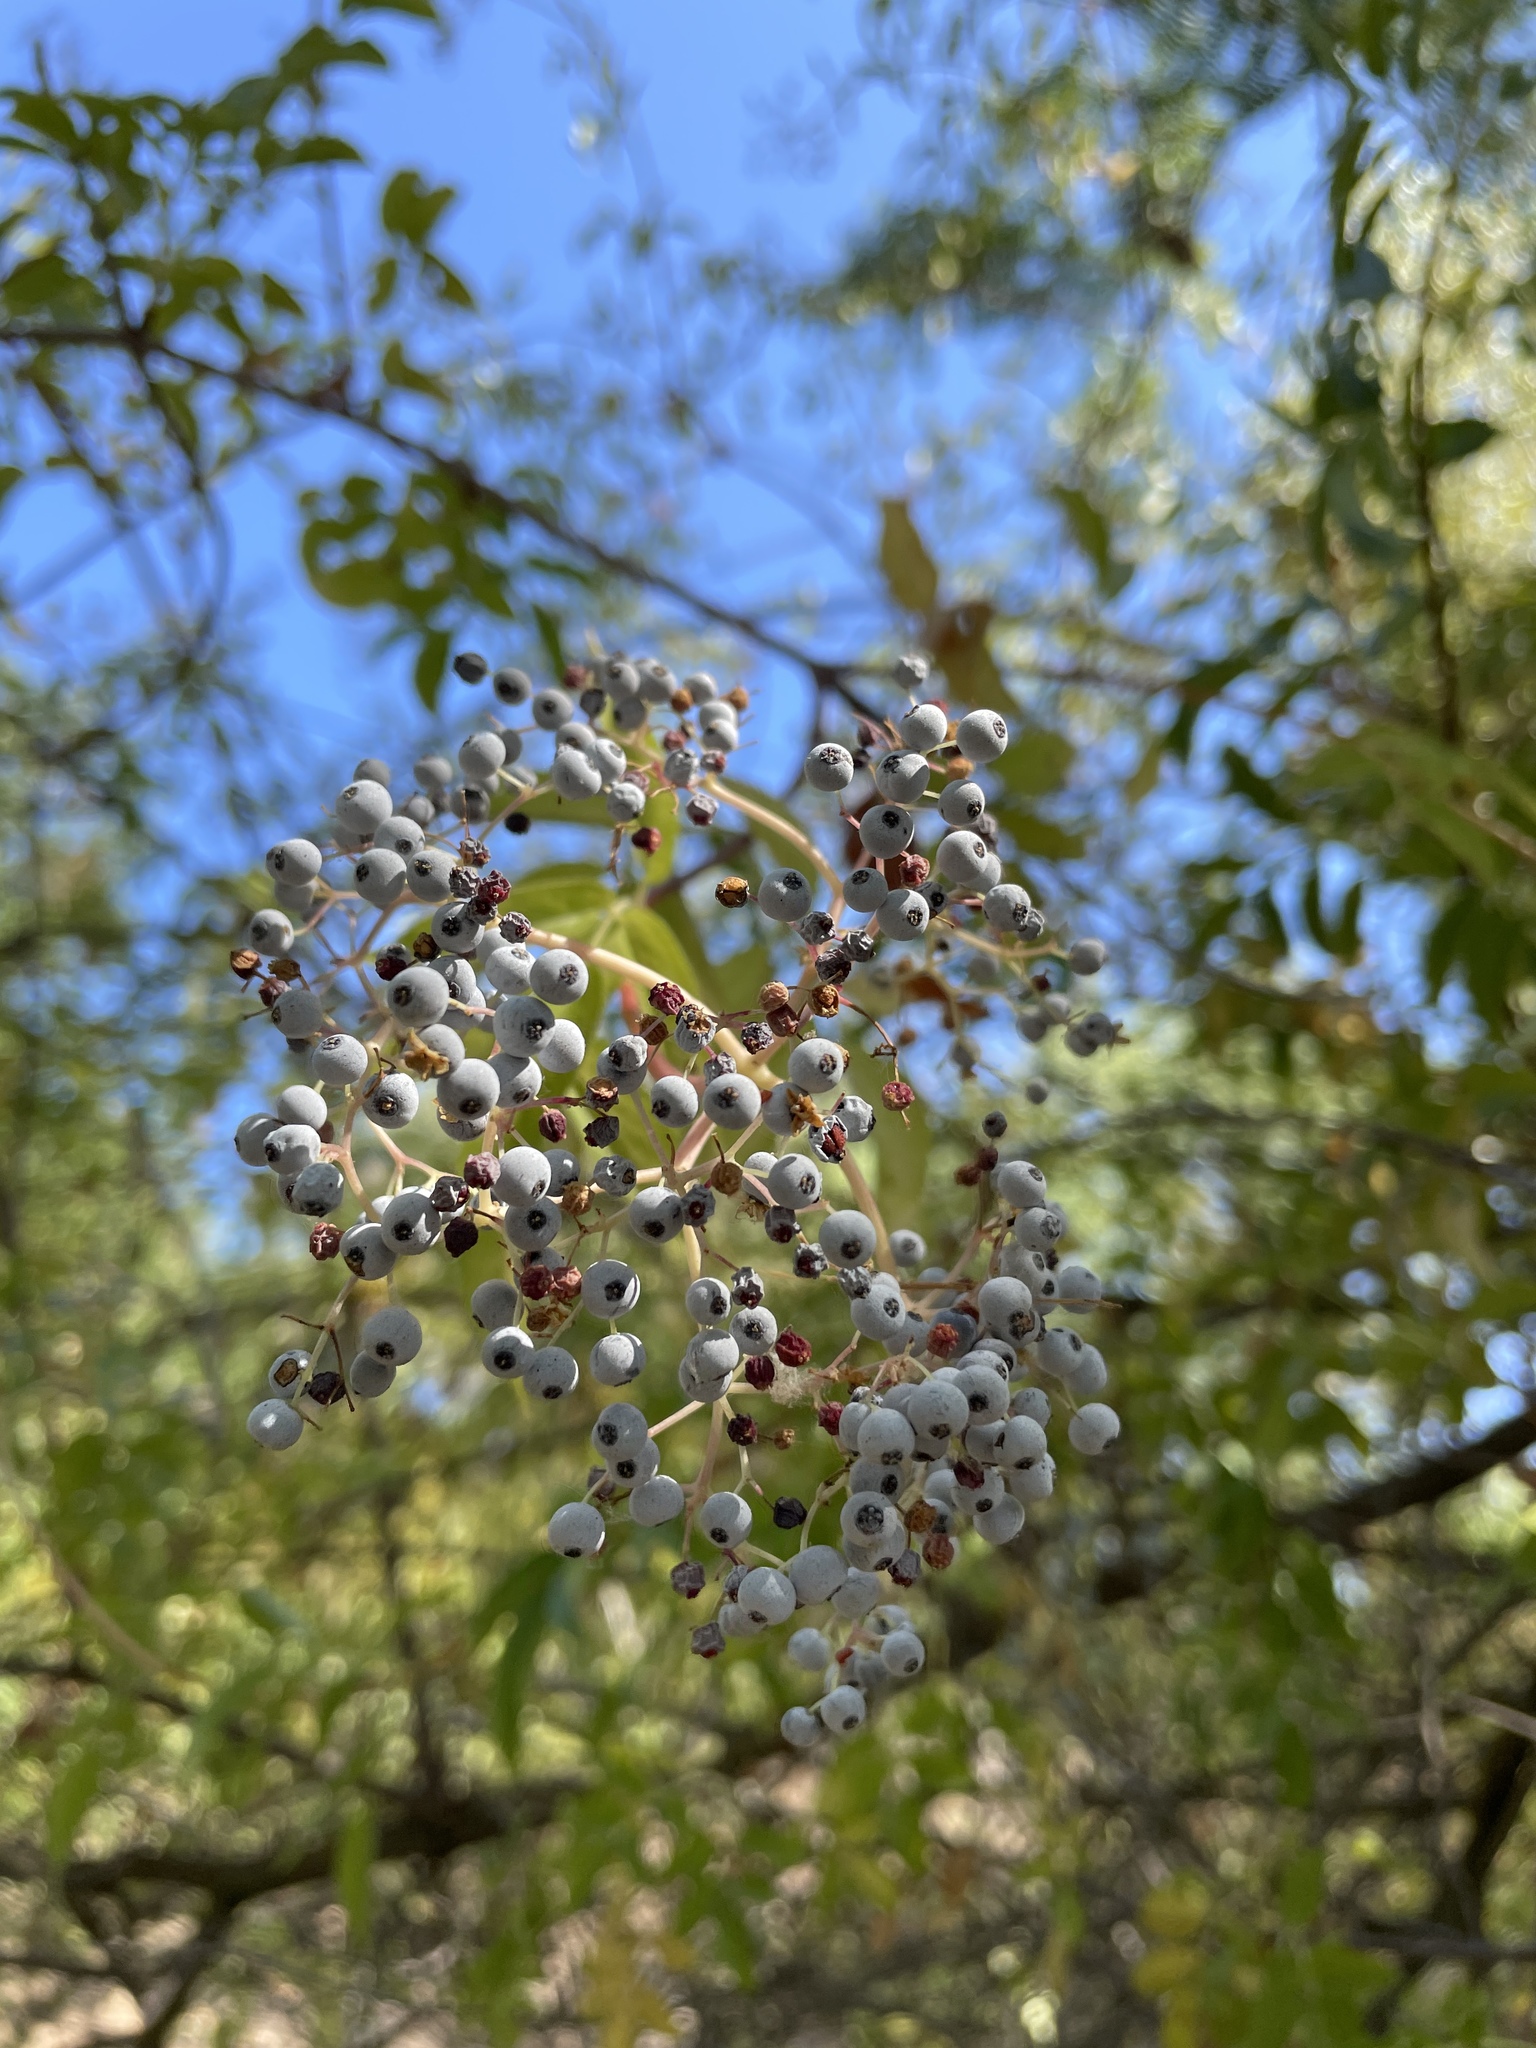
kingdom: Plantae
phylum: Tracheophyta
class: Magnoliopsida
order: Dipsacales
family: Viburnaceae
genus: Sambucus
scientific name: Sambucus cerulea
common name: Blue elder
